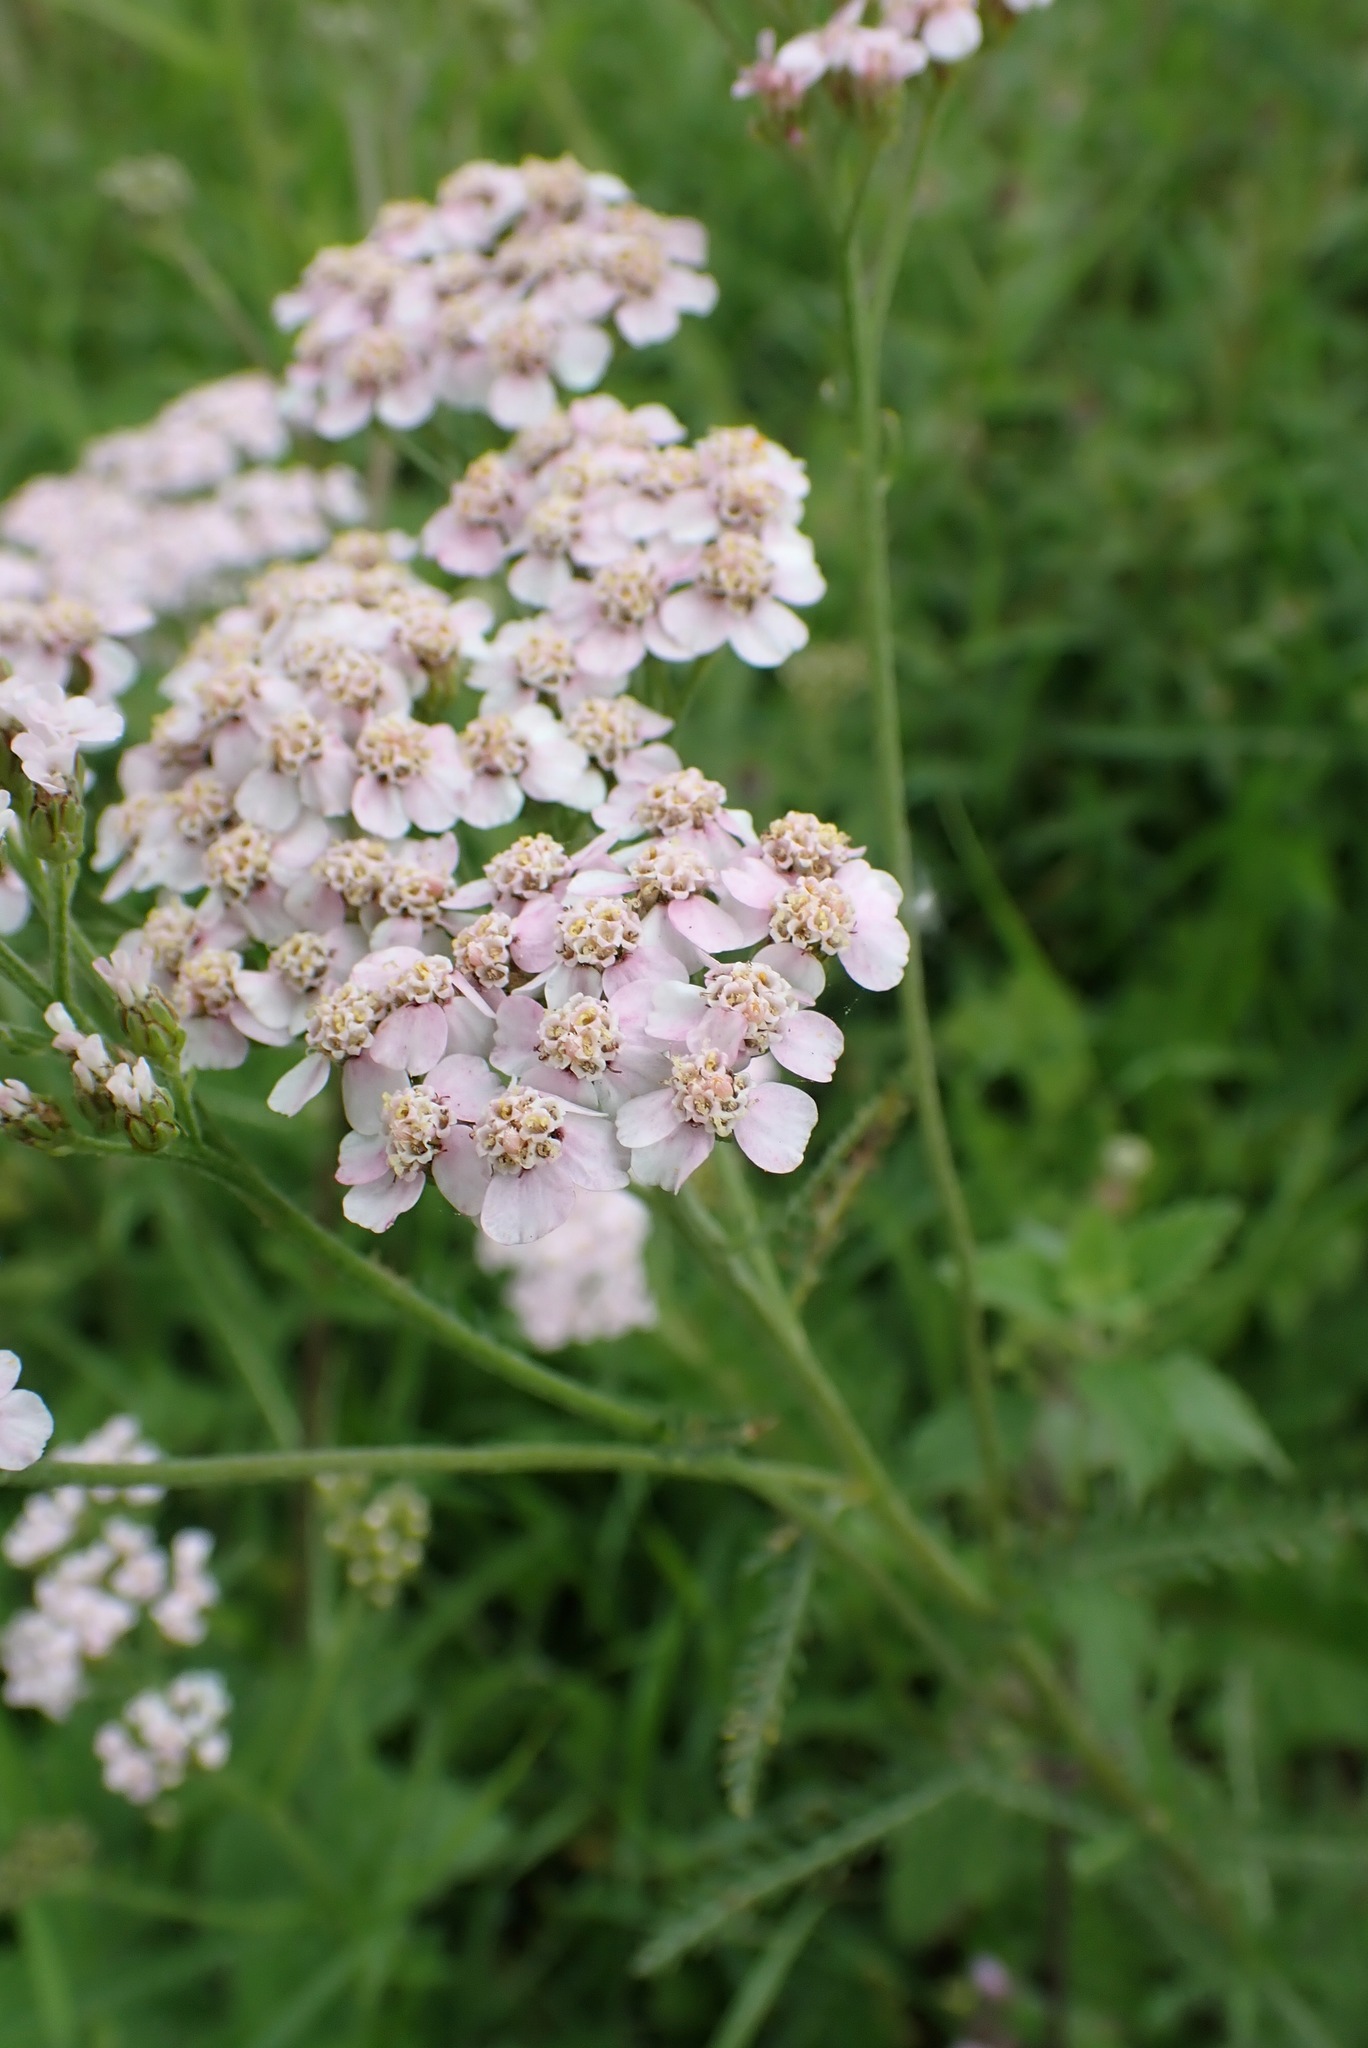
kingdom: Plantae
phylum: Tracheophyta
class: Magnoliopsida
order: Asterales
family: Asteraceae
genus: Achillea
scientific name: Achillea millefolium
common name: Yarrow
